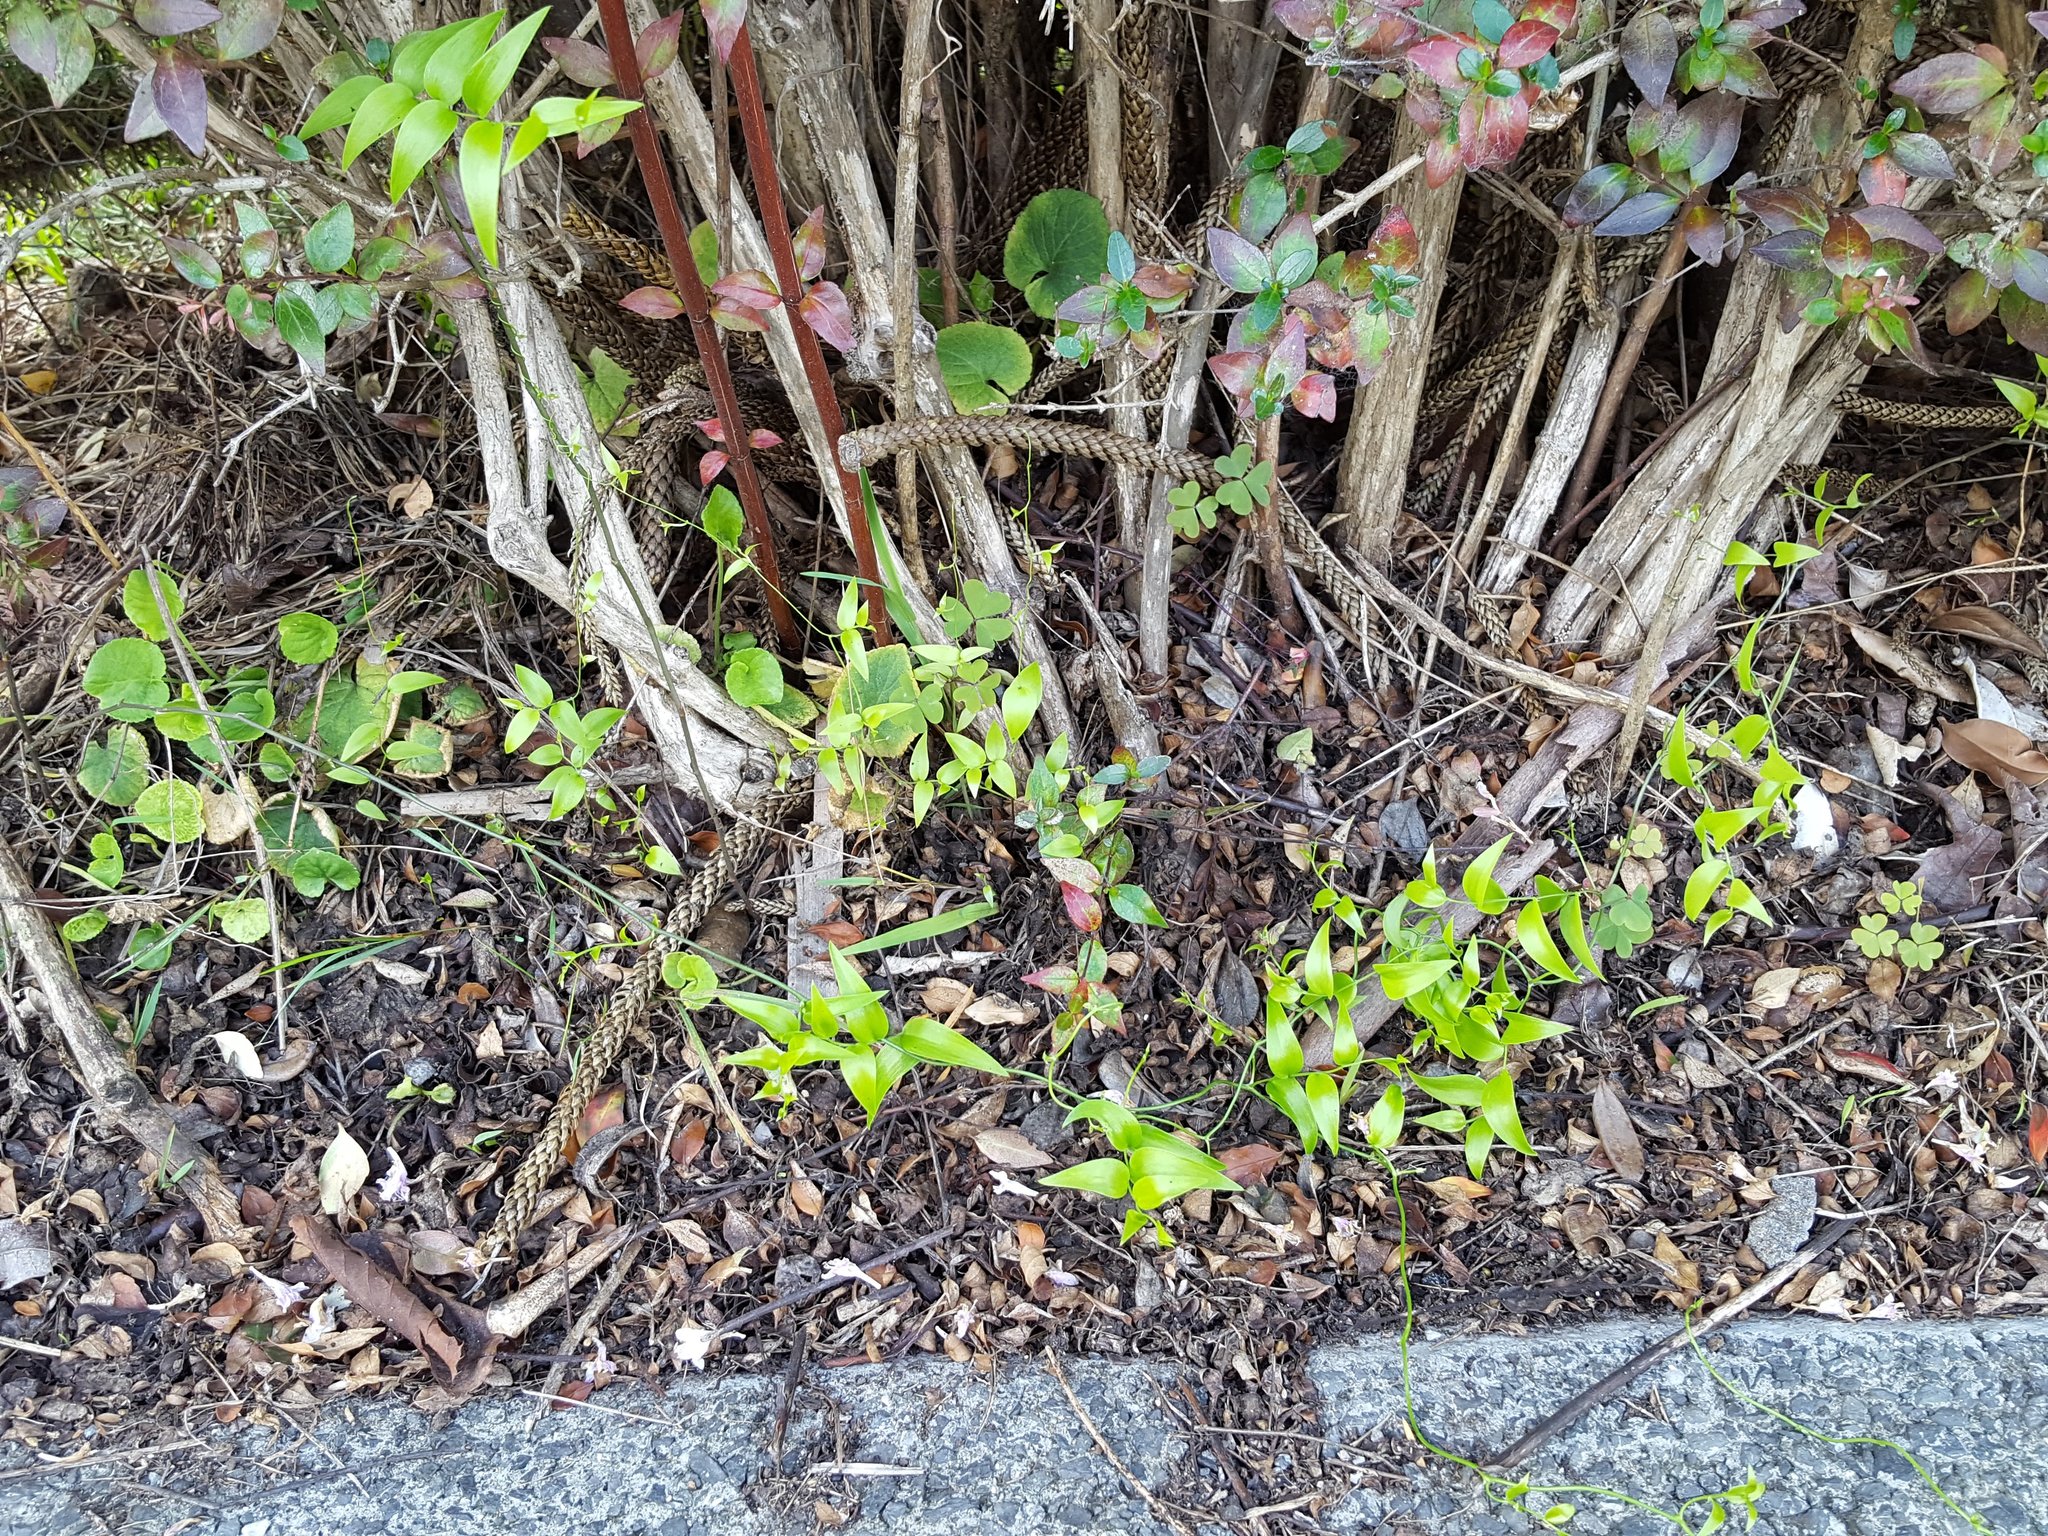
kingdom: Plantae
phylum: Tracheophyta
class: Liliopsida
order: Asparagales
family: Asparagaceae
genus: Asparagus
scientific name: Asparagus asparagoides
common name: African asparagus fern
